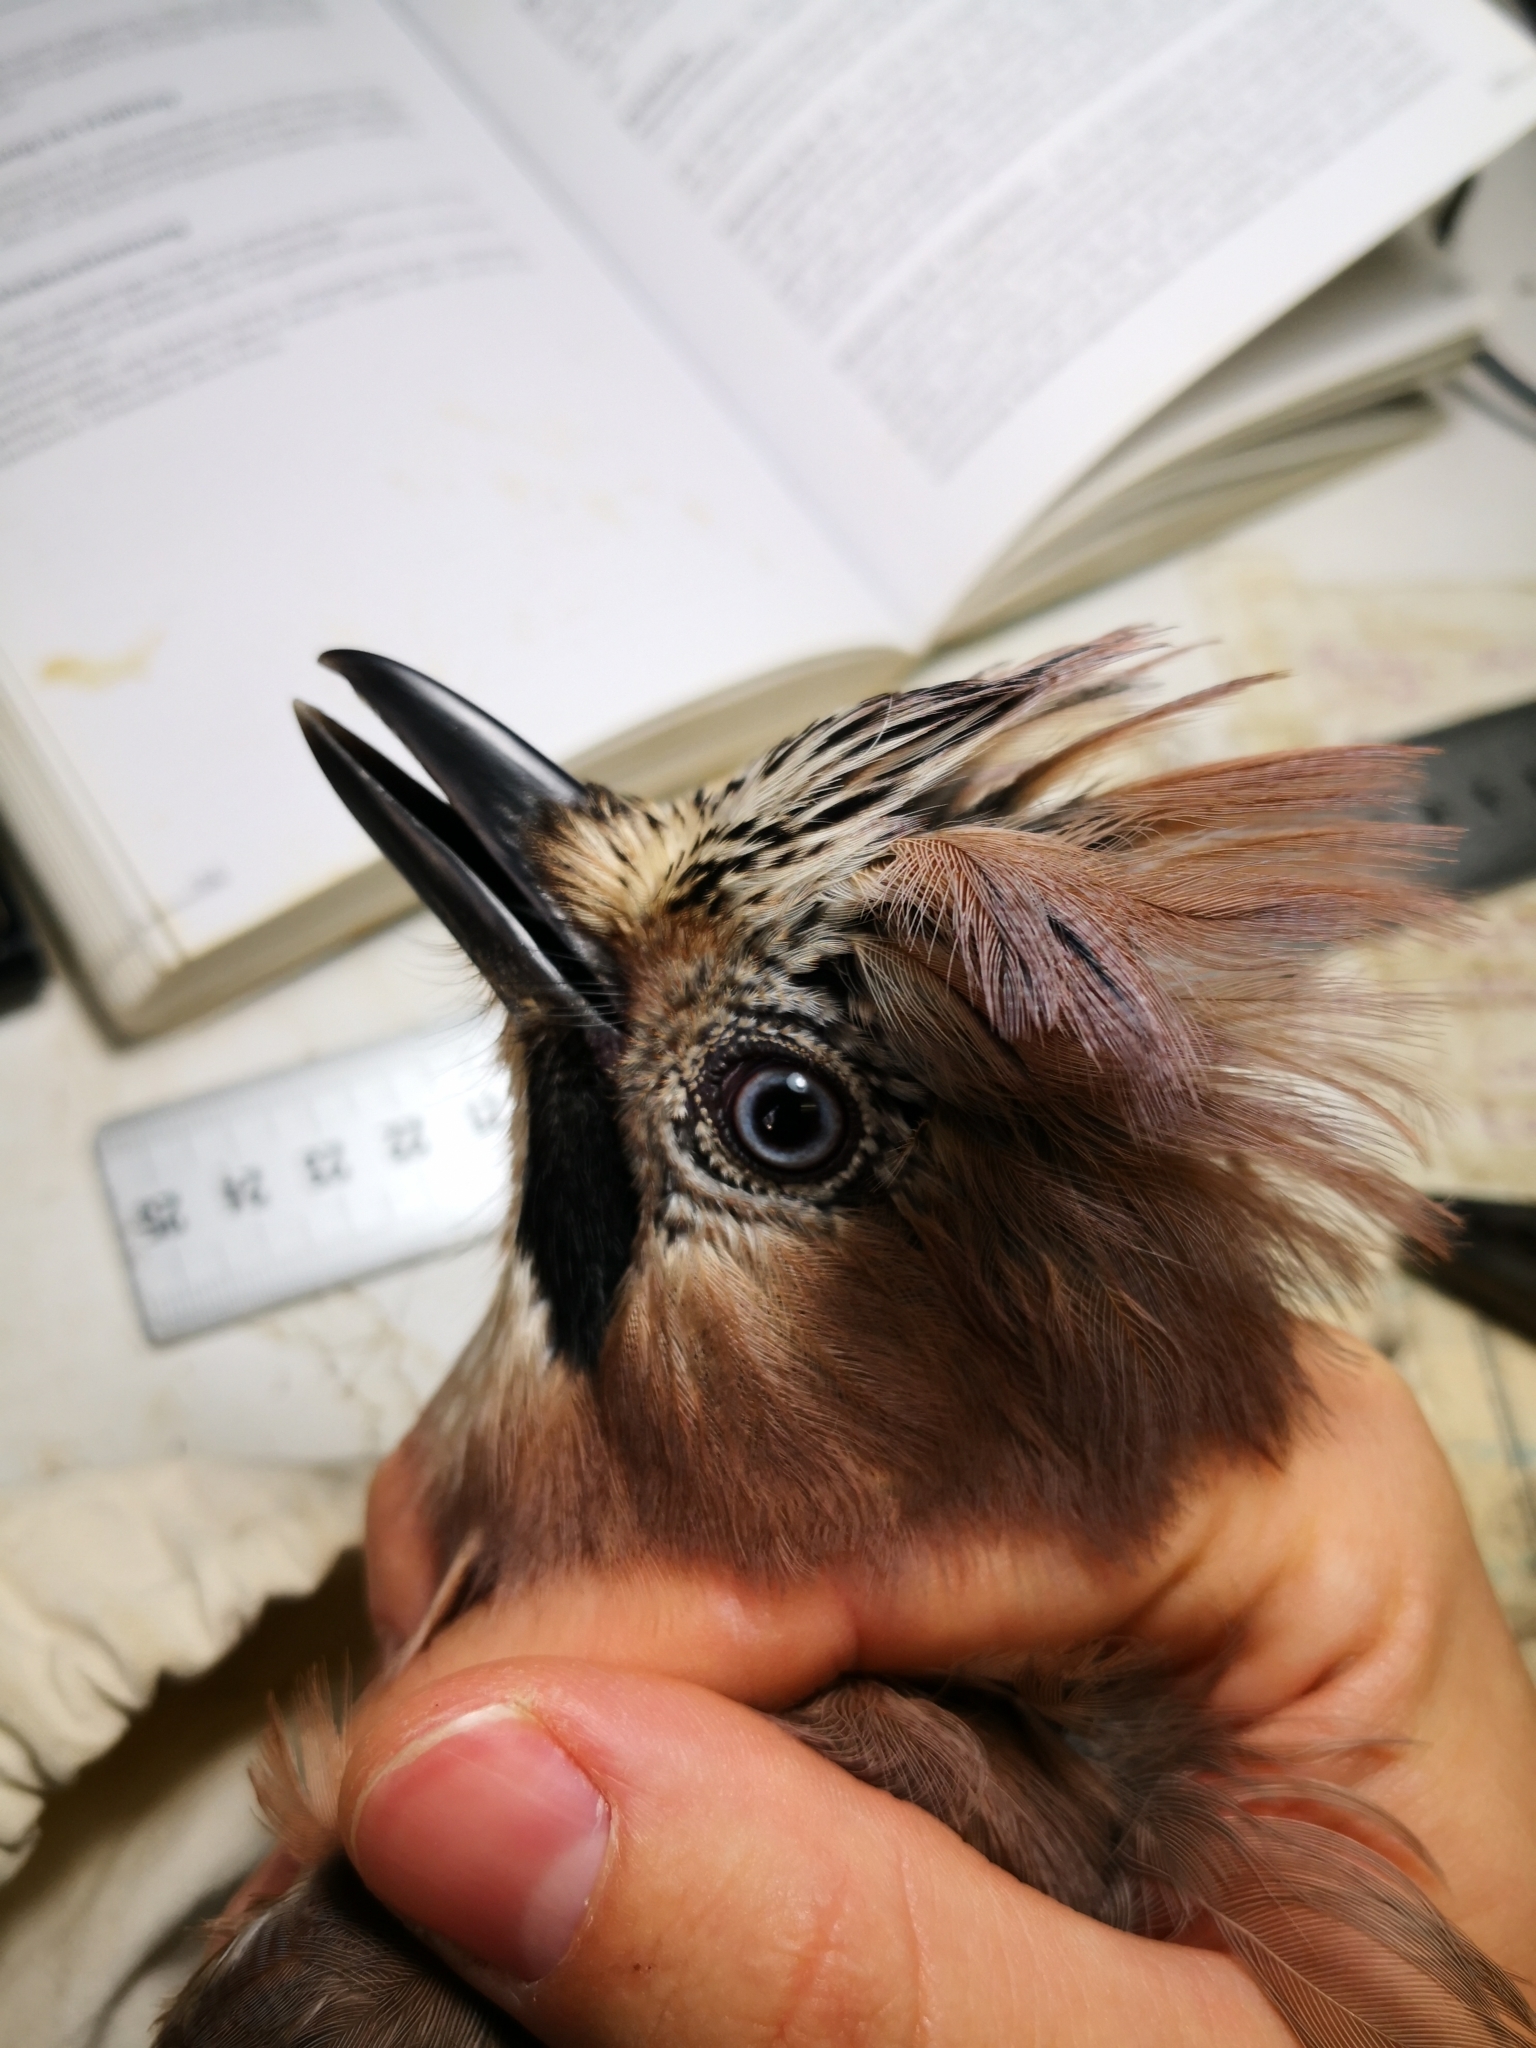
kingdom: Animalia
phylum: Chordata
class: Aves
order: Passeriformes
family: Corvidae
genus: Garrulus
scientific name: Garrulus glandarius
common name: Eurasian jay
